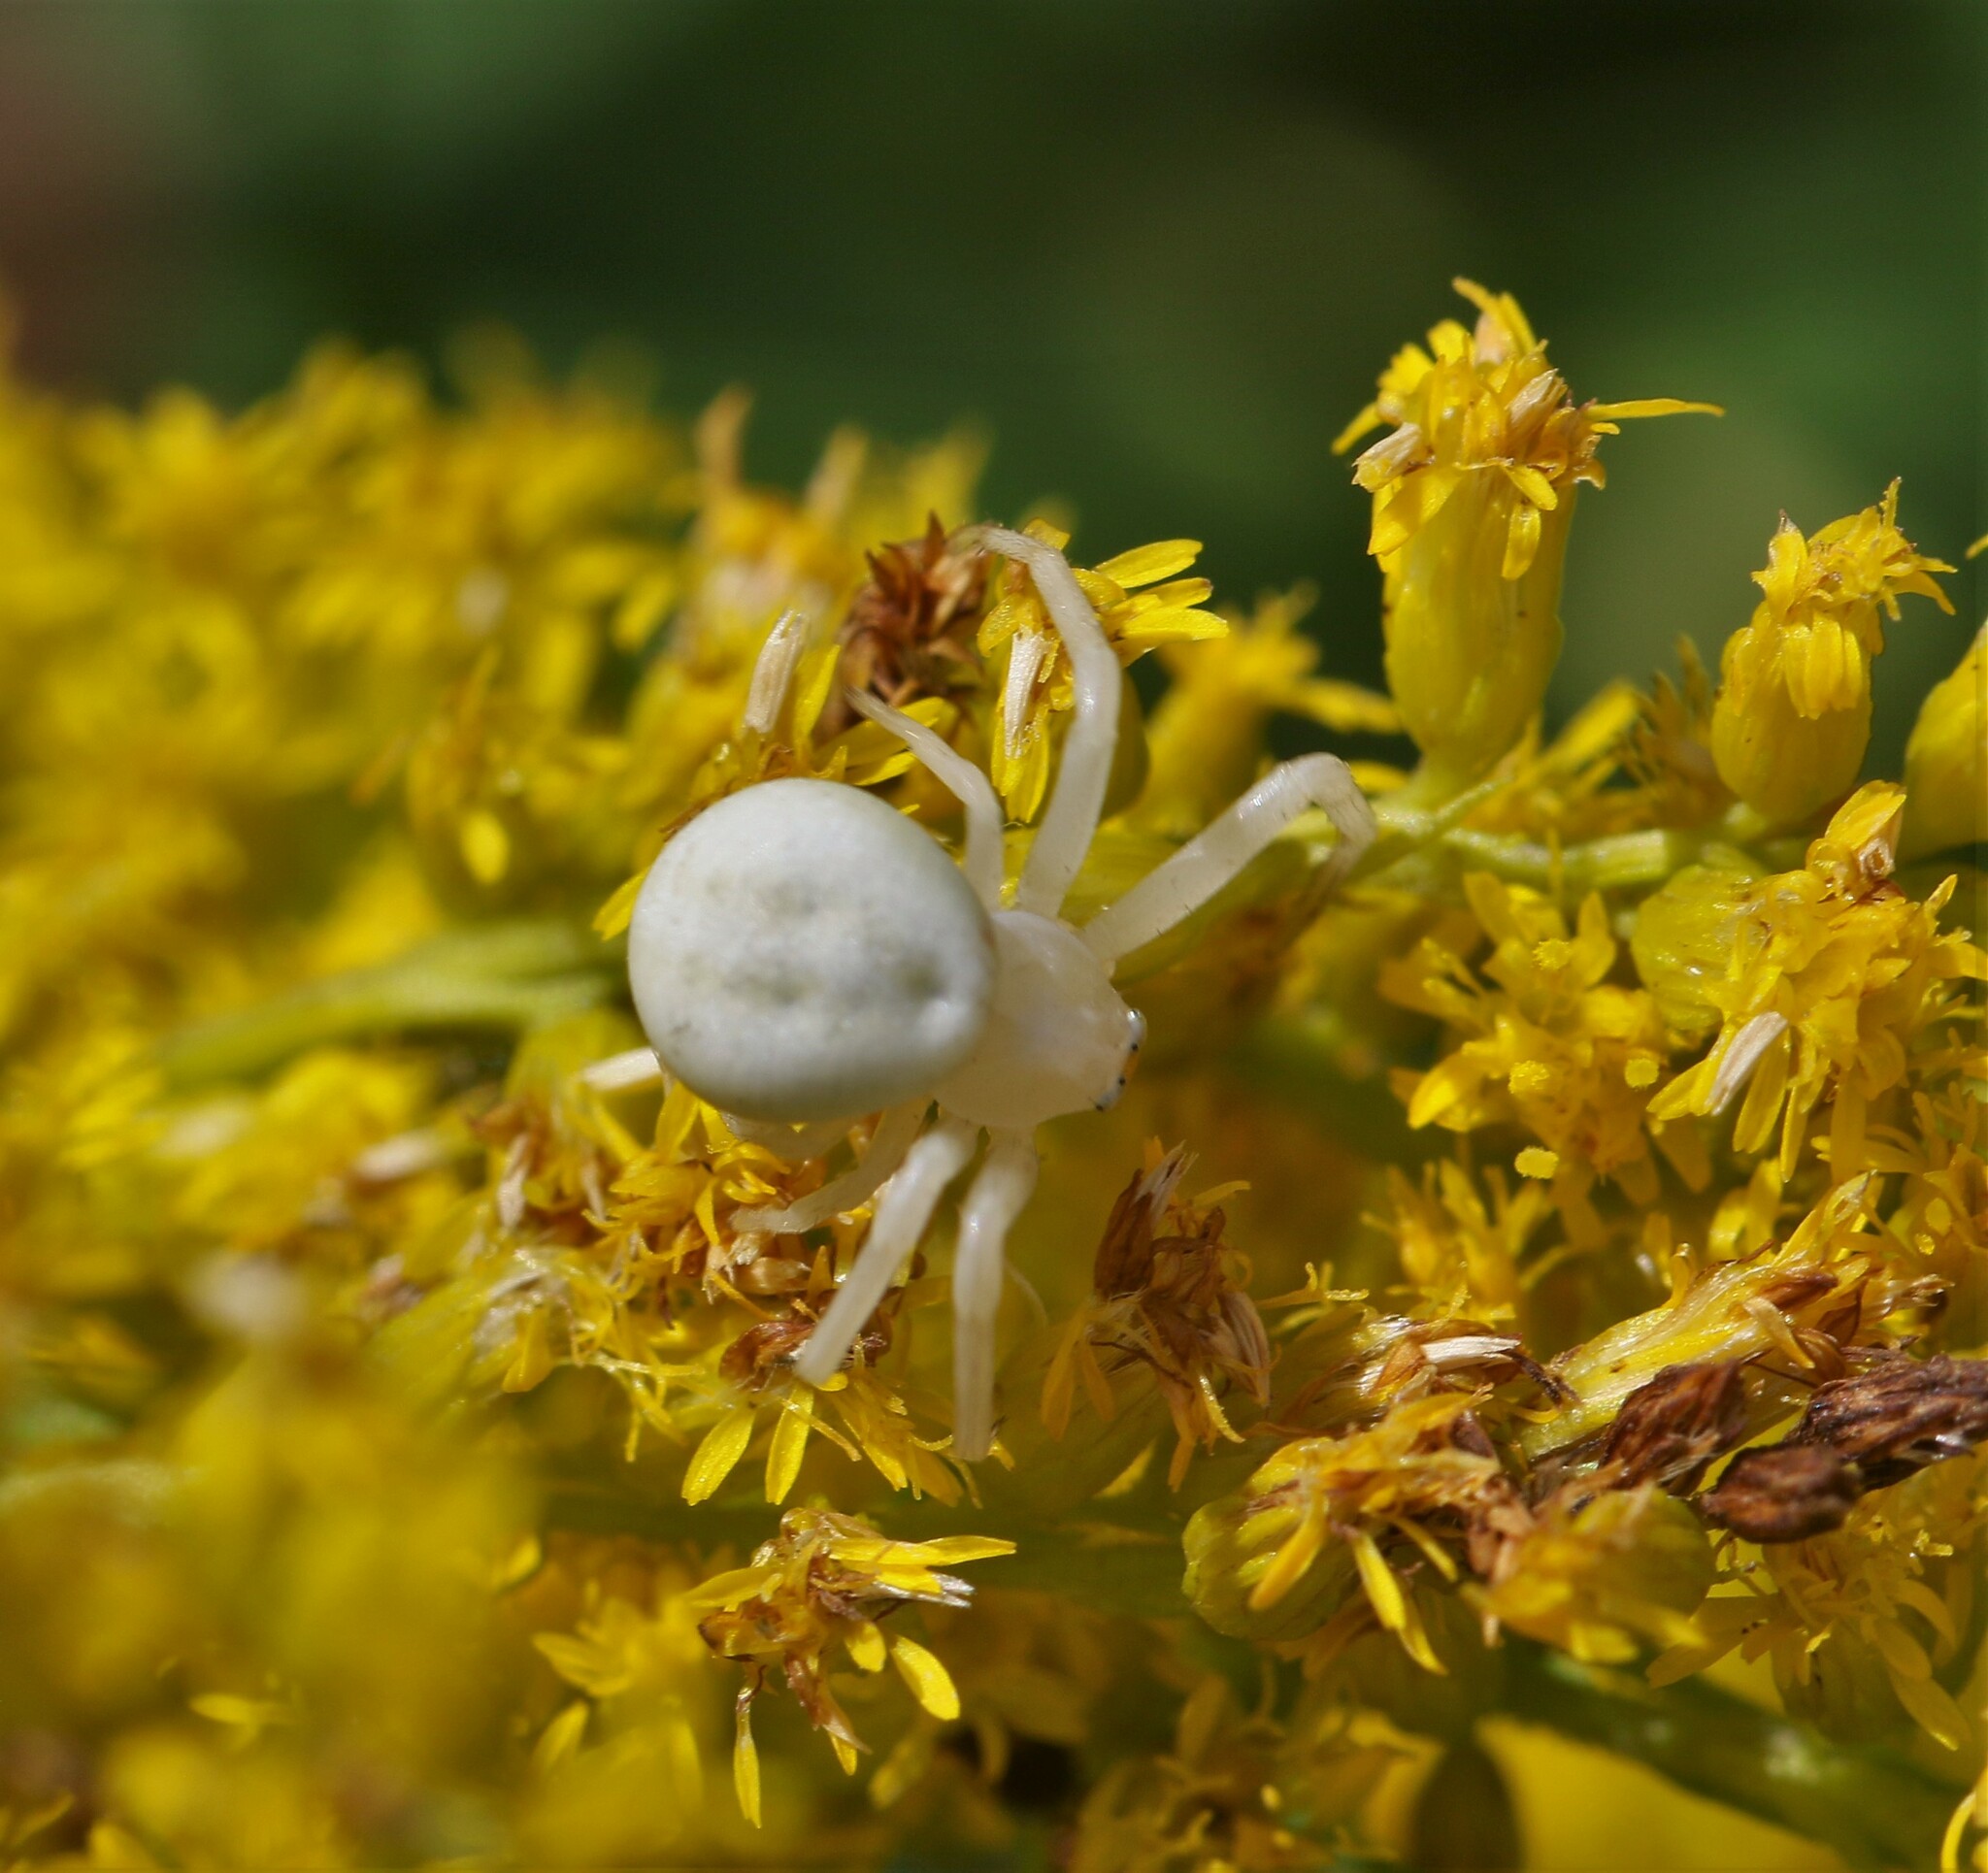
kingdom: Animalia
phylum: Arthropoda
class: Arachnida
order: Araneae
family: Thomisidae
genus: Misumena
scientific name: Misumena vatia
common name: Goldenrod crab spider
